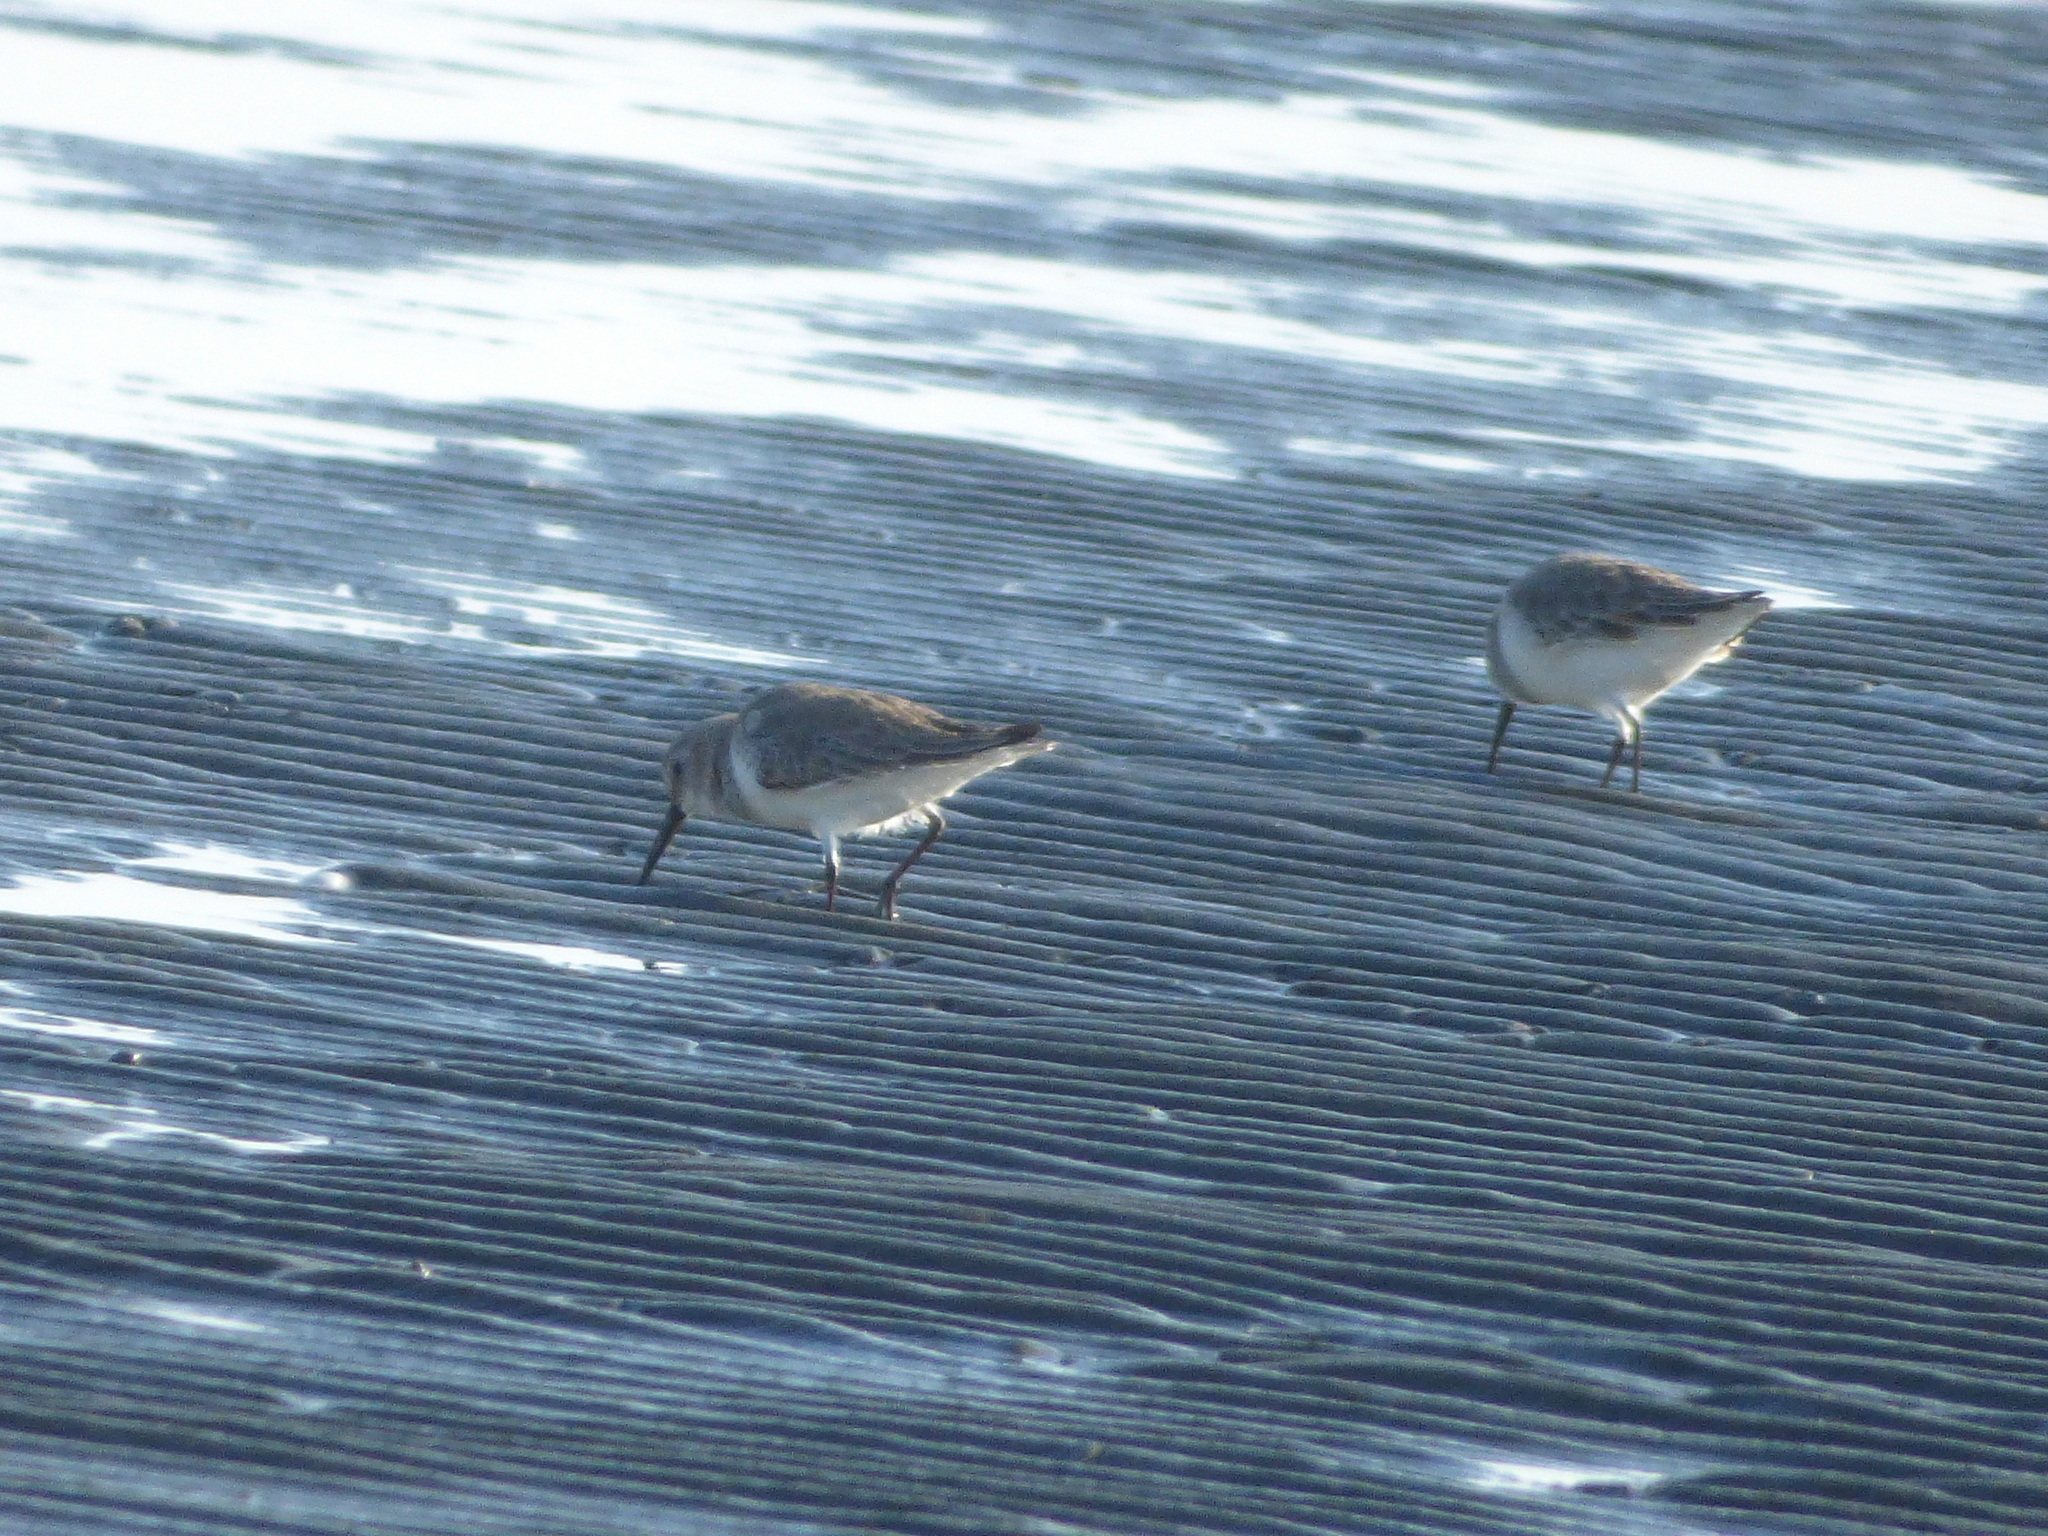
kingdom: Animalia
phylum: Chordata
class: Aves
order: Charadriiformes
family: Scolopacidae
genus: Calidris
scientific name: Calidris alpina
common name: Dunlin
